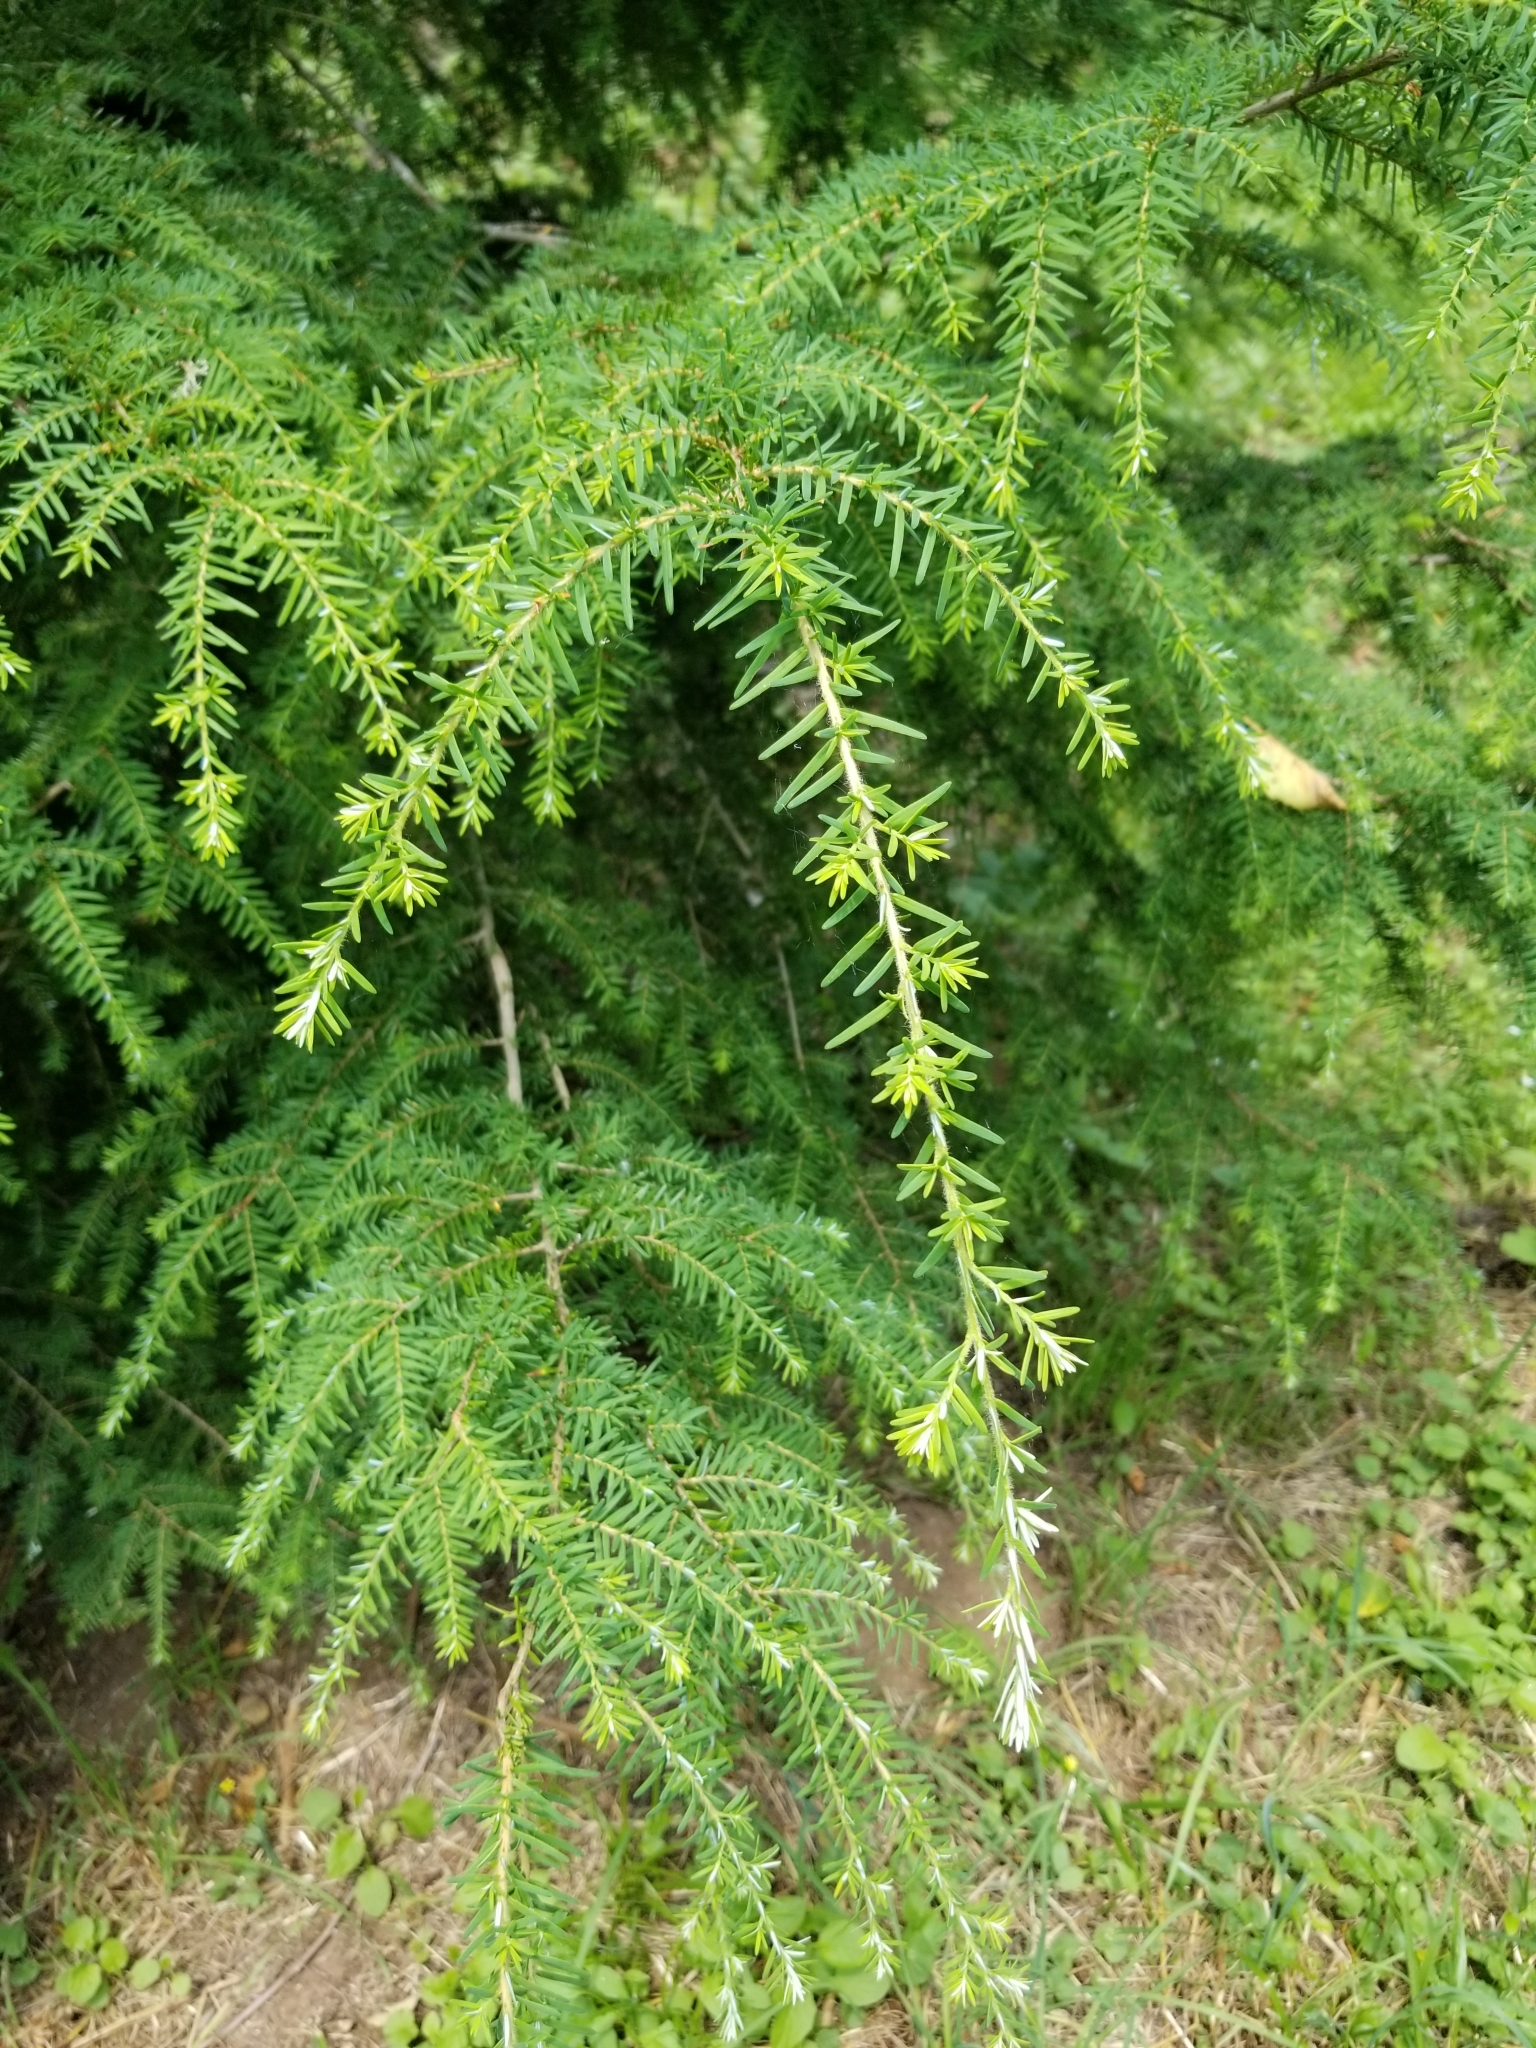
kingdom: Plantae
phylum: Tracheophyta
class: Pinopsida
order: Pinales
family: Pinaceae
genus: Tsuga
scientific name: Tsuga heterophylla
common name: Western hemlock
